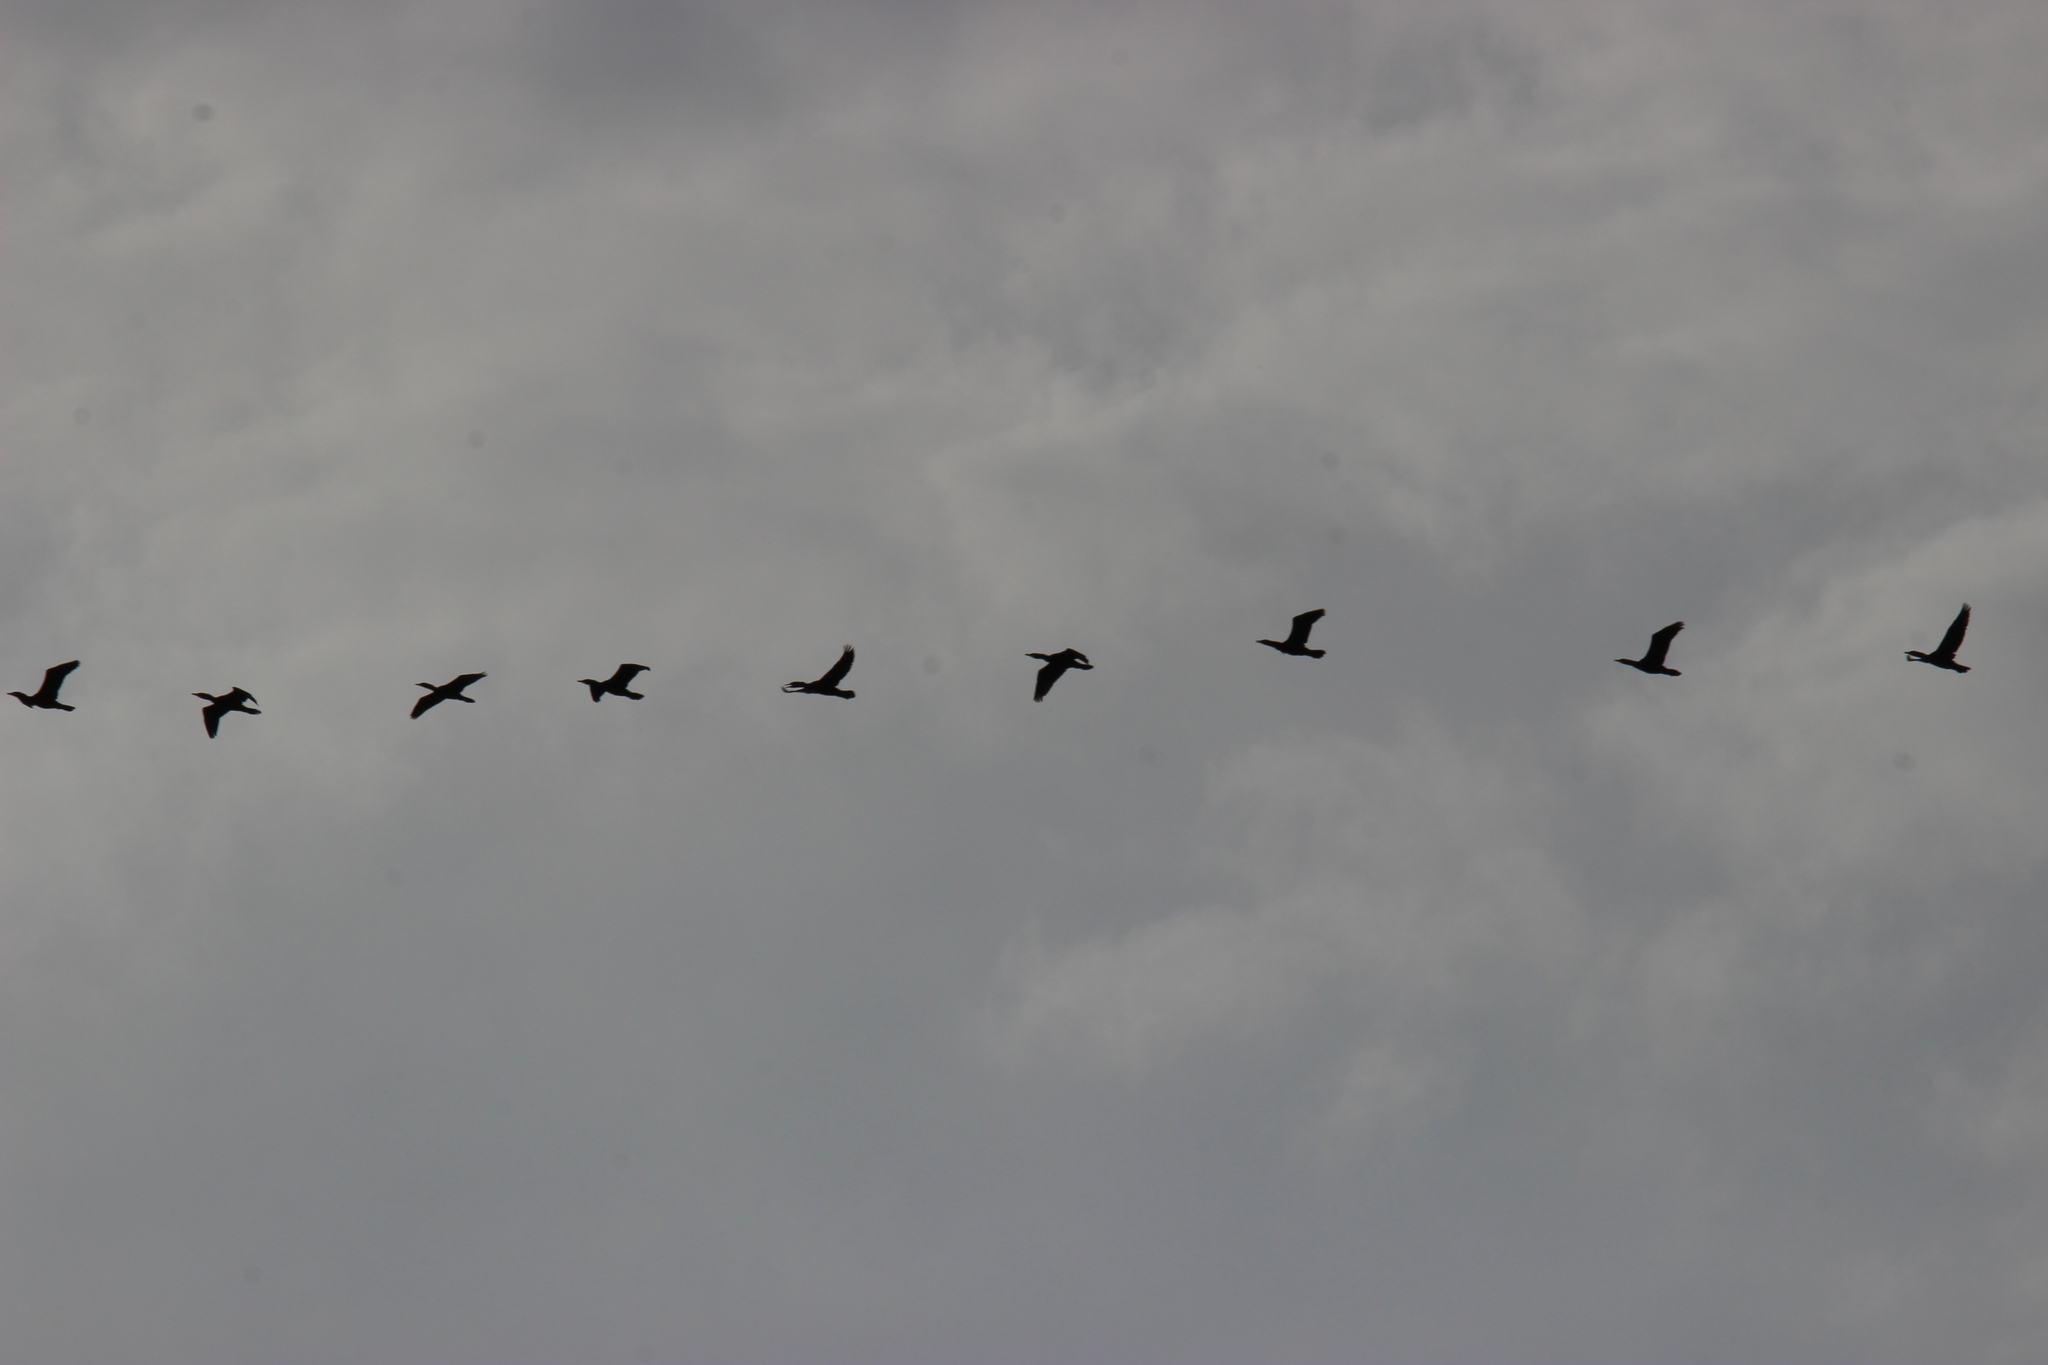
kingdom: Animalia
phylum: Chordata
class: Aves
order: Suliformes
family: Phalacrocoracidae
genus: Phalacrocorax
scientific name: Phalacrocorax auritus
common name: Double-crested cormorant
